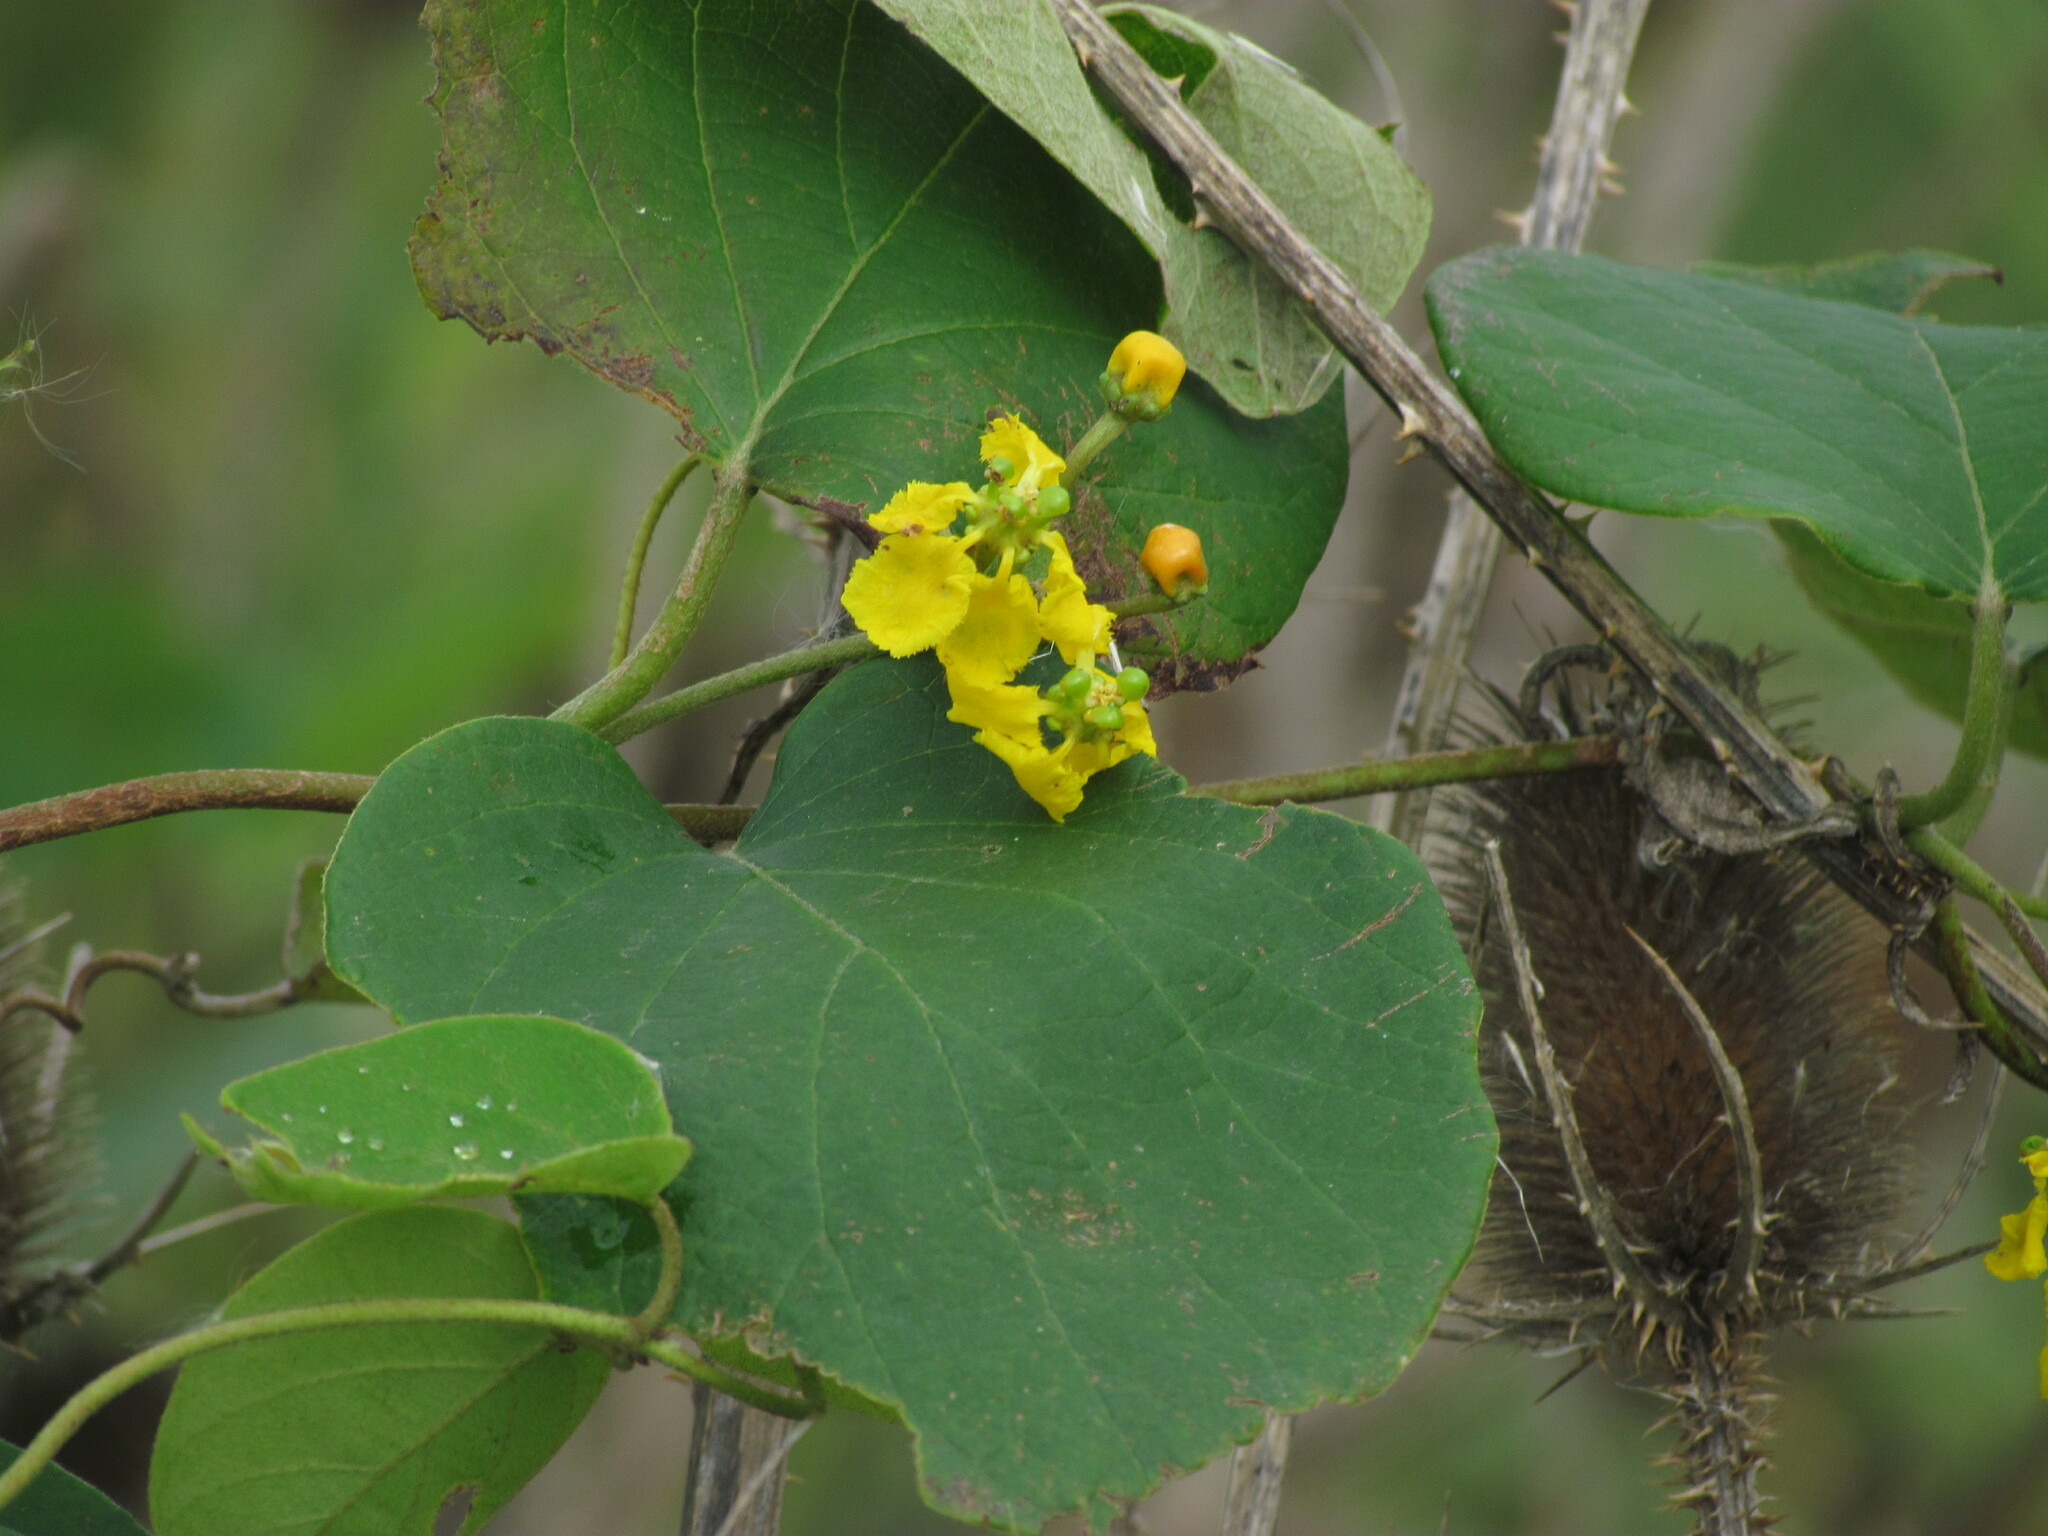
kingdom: Plantae
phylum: Tracheophyta
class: Magnoliopsida
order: Malpighiales
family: Malpighiaceae
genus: Stigmaphyllon
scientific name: Stigmaphyllon bonariense
